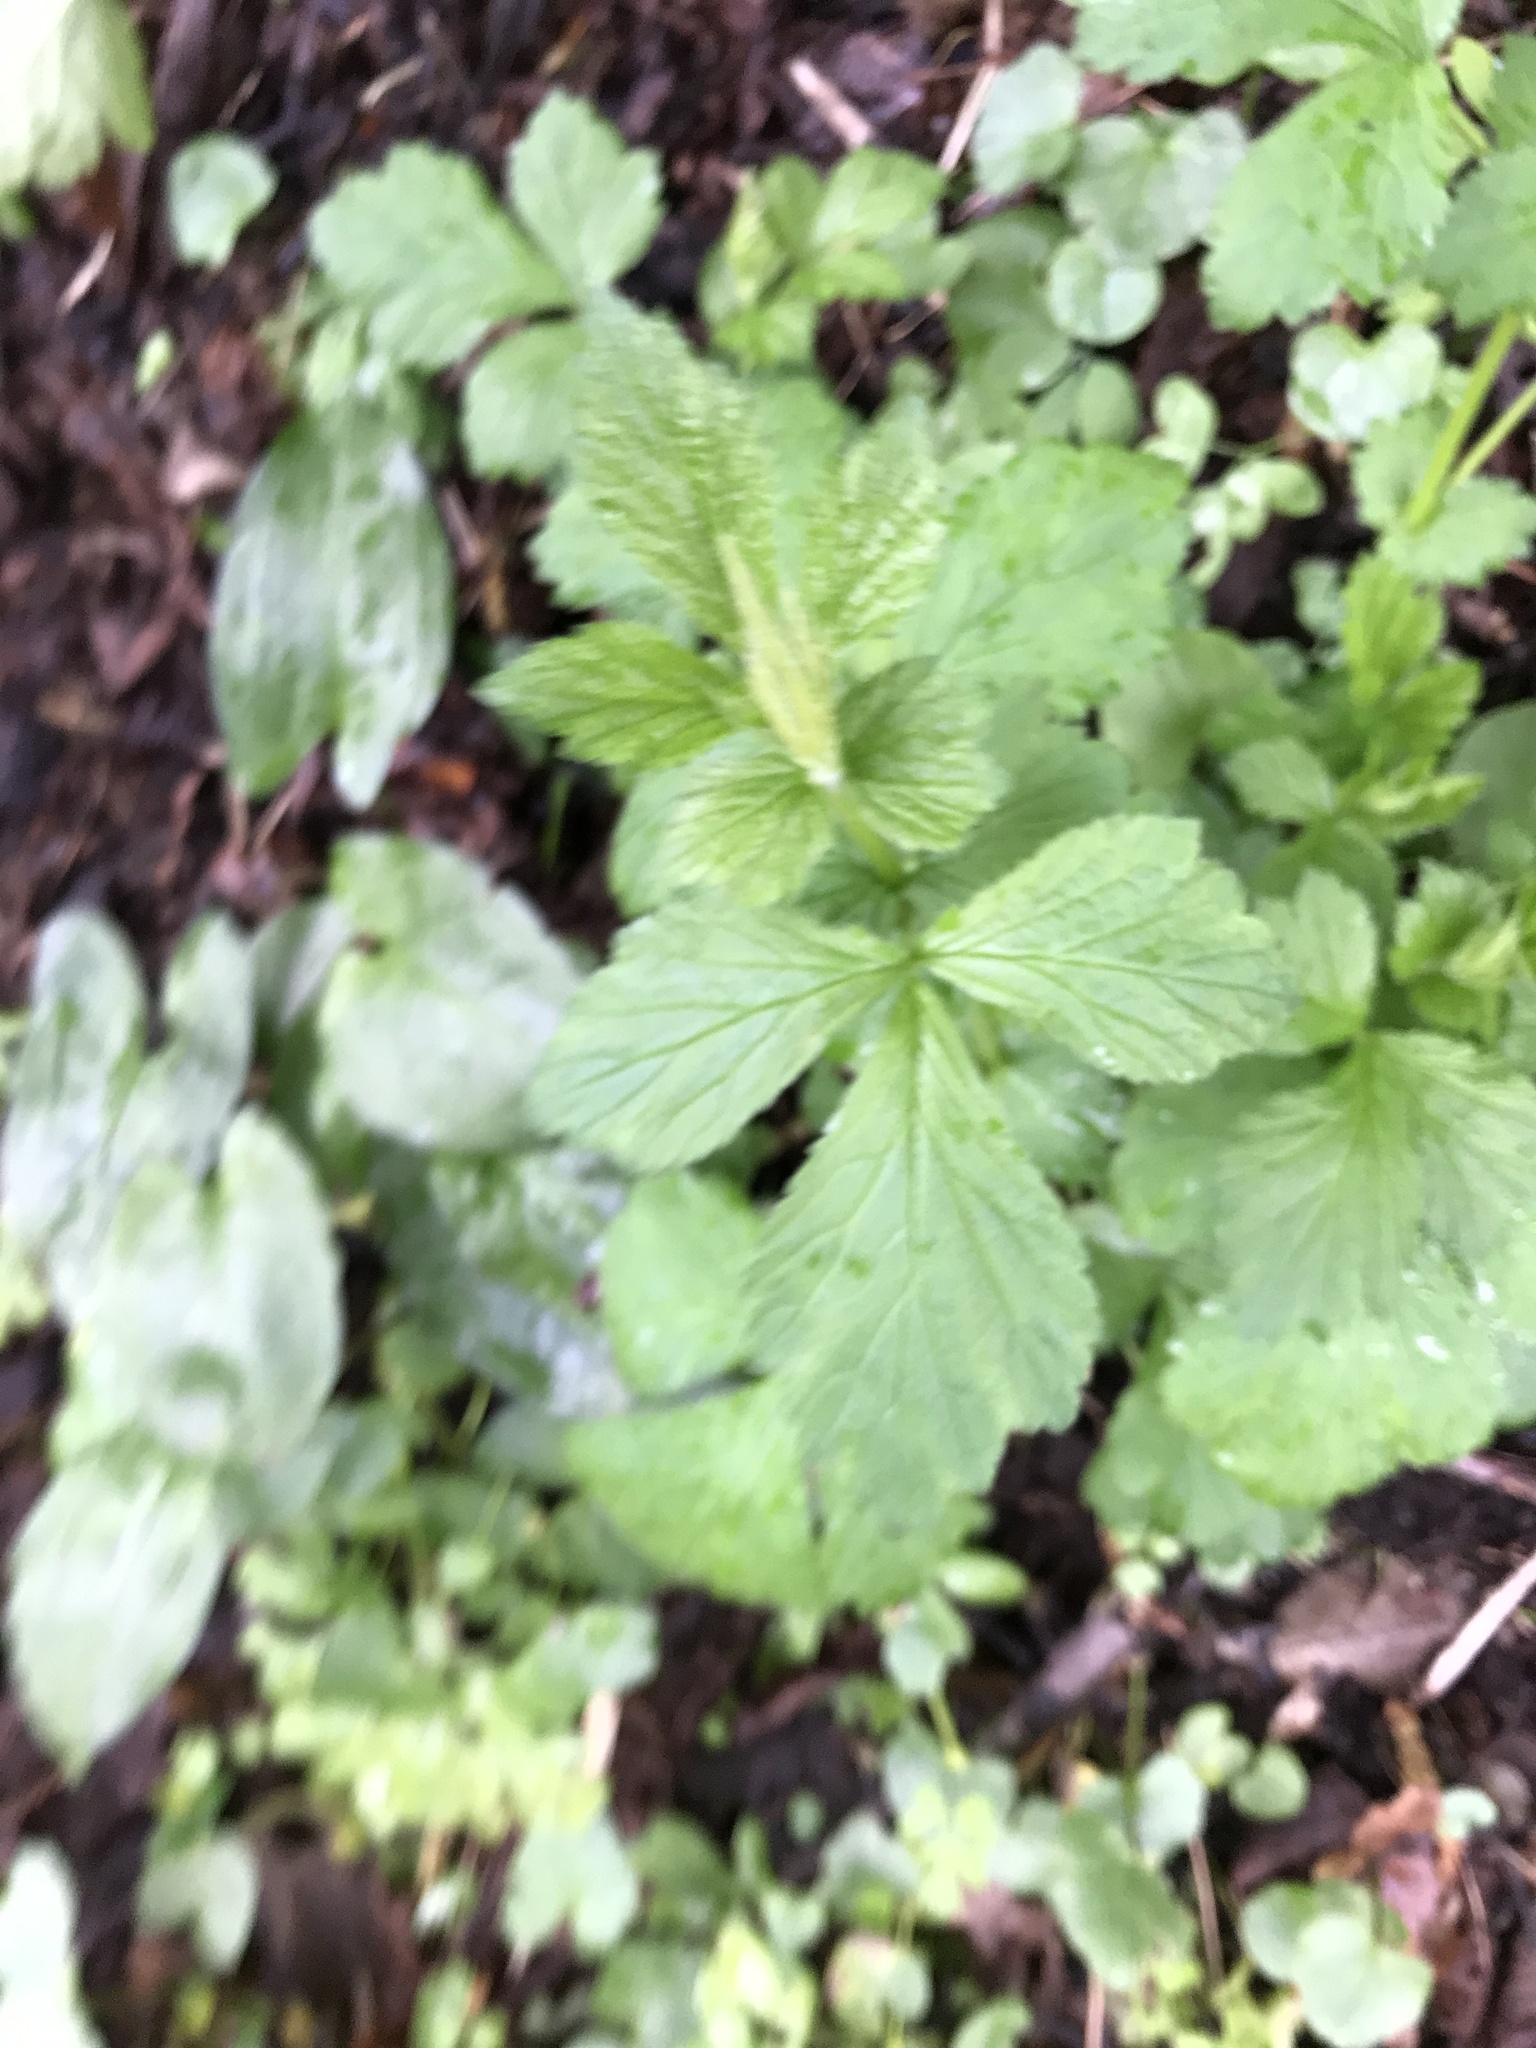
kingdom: Plantae
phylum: Tracheophyta
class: Magnoliopsida
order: Rosales
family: Rosaceae
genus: Geum
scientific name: Geum urbanum
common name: Wood avens
